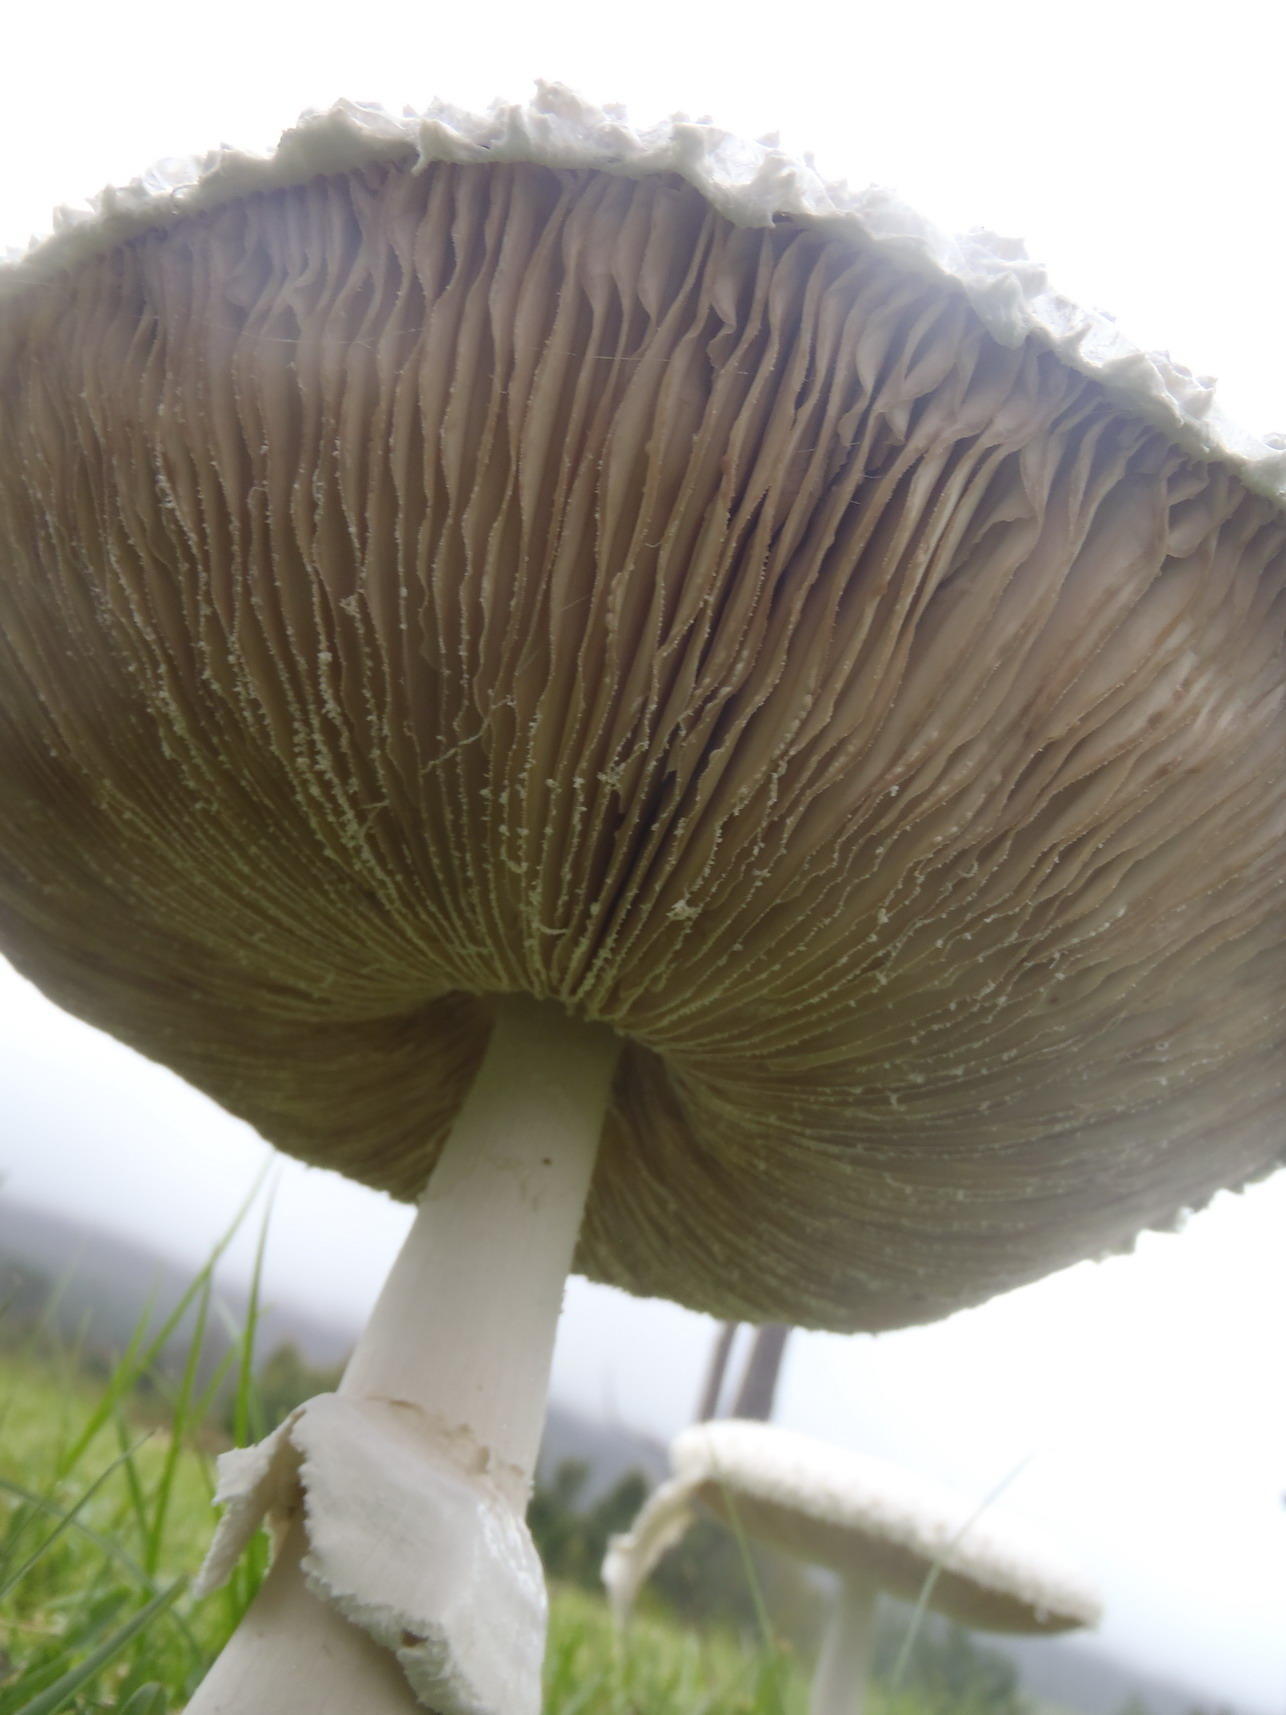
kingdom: Fungi
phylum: Basidiomycota
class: Agaricomycetes
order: Agaricales
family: Agaricaceae
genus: Macrolepiota
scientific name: Macrolepiota zeyheri
